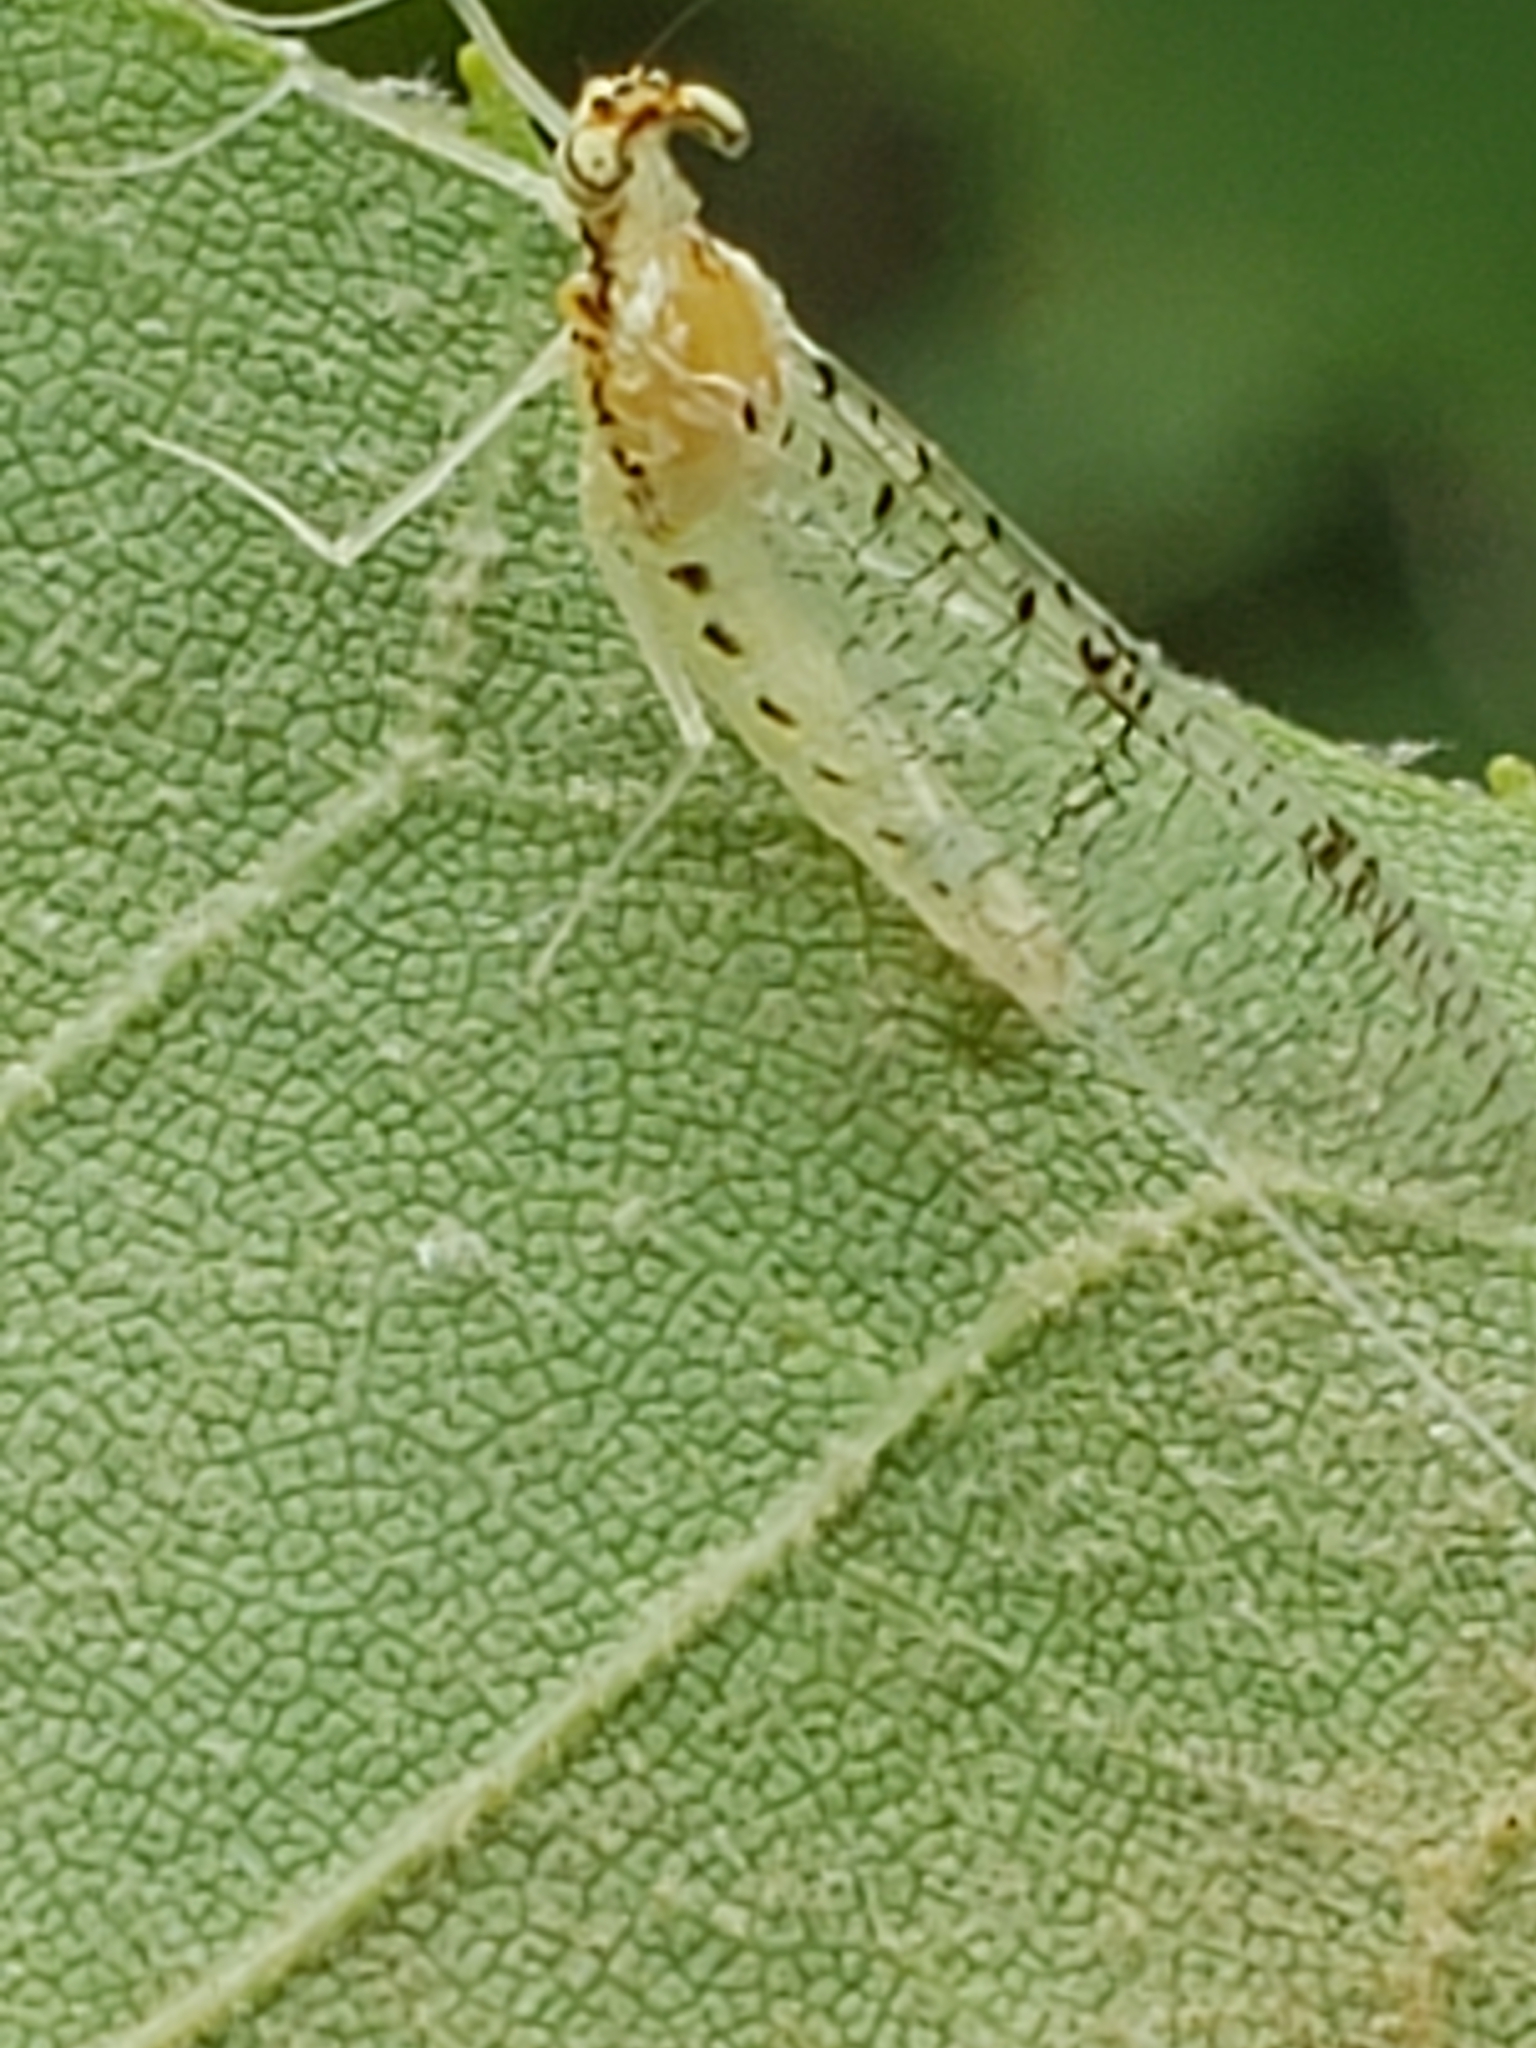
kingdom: Animalia
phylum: Arthropoda
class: Insecta
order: Ephemeroptera
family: Heptageniidae
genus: Leucrocuta
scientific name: Leucrocuta minerva
